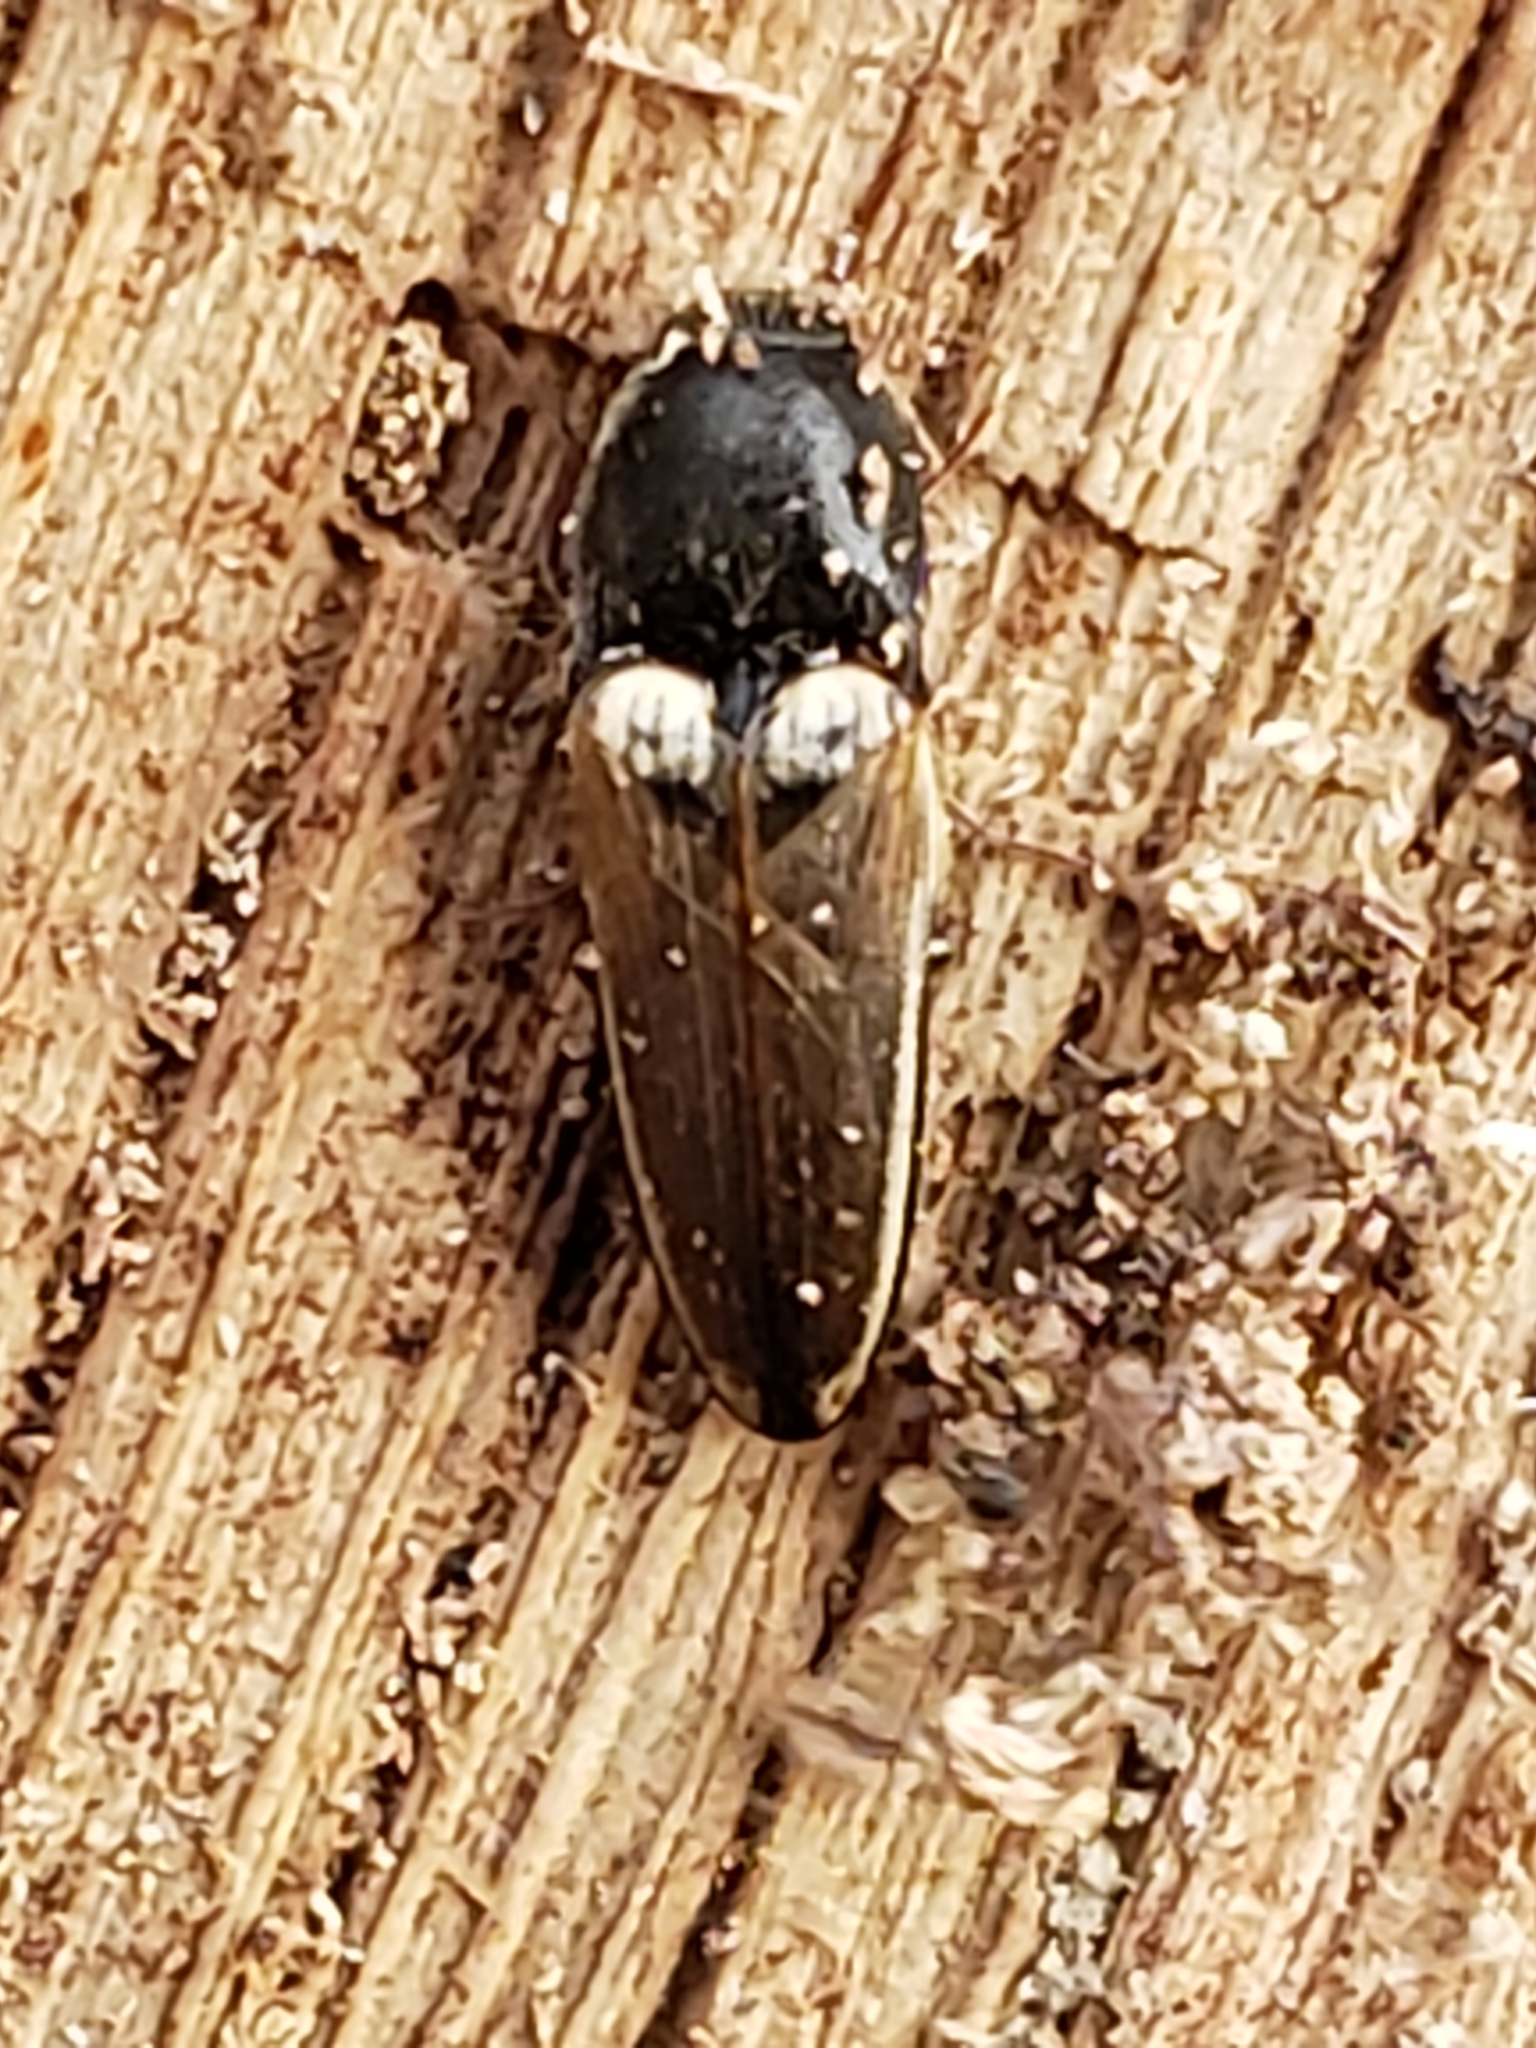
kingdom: Animalia
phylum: Arthropoda
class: Insecta
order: Coleoptera
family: Elateridae
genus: Ampedus
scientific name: Ampedus nigricollis
